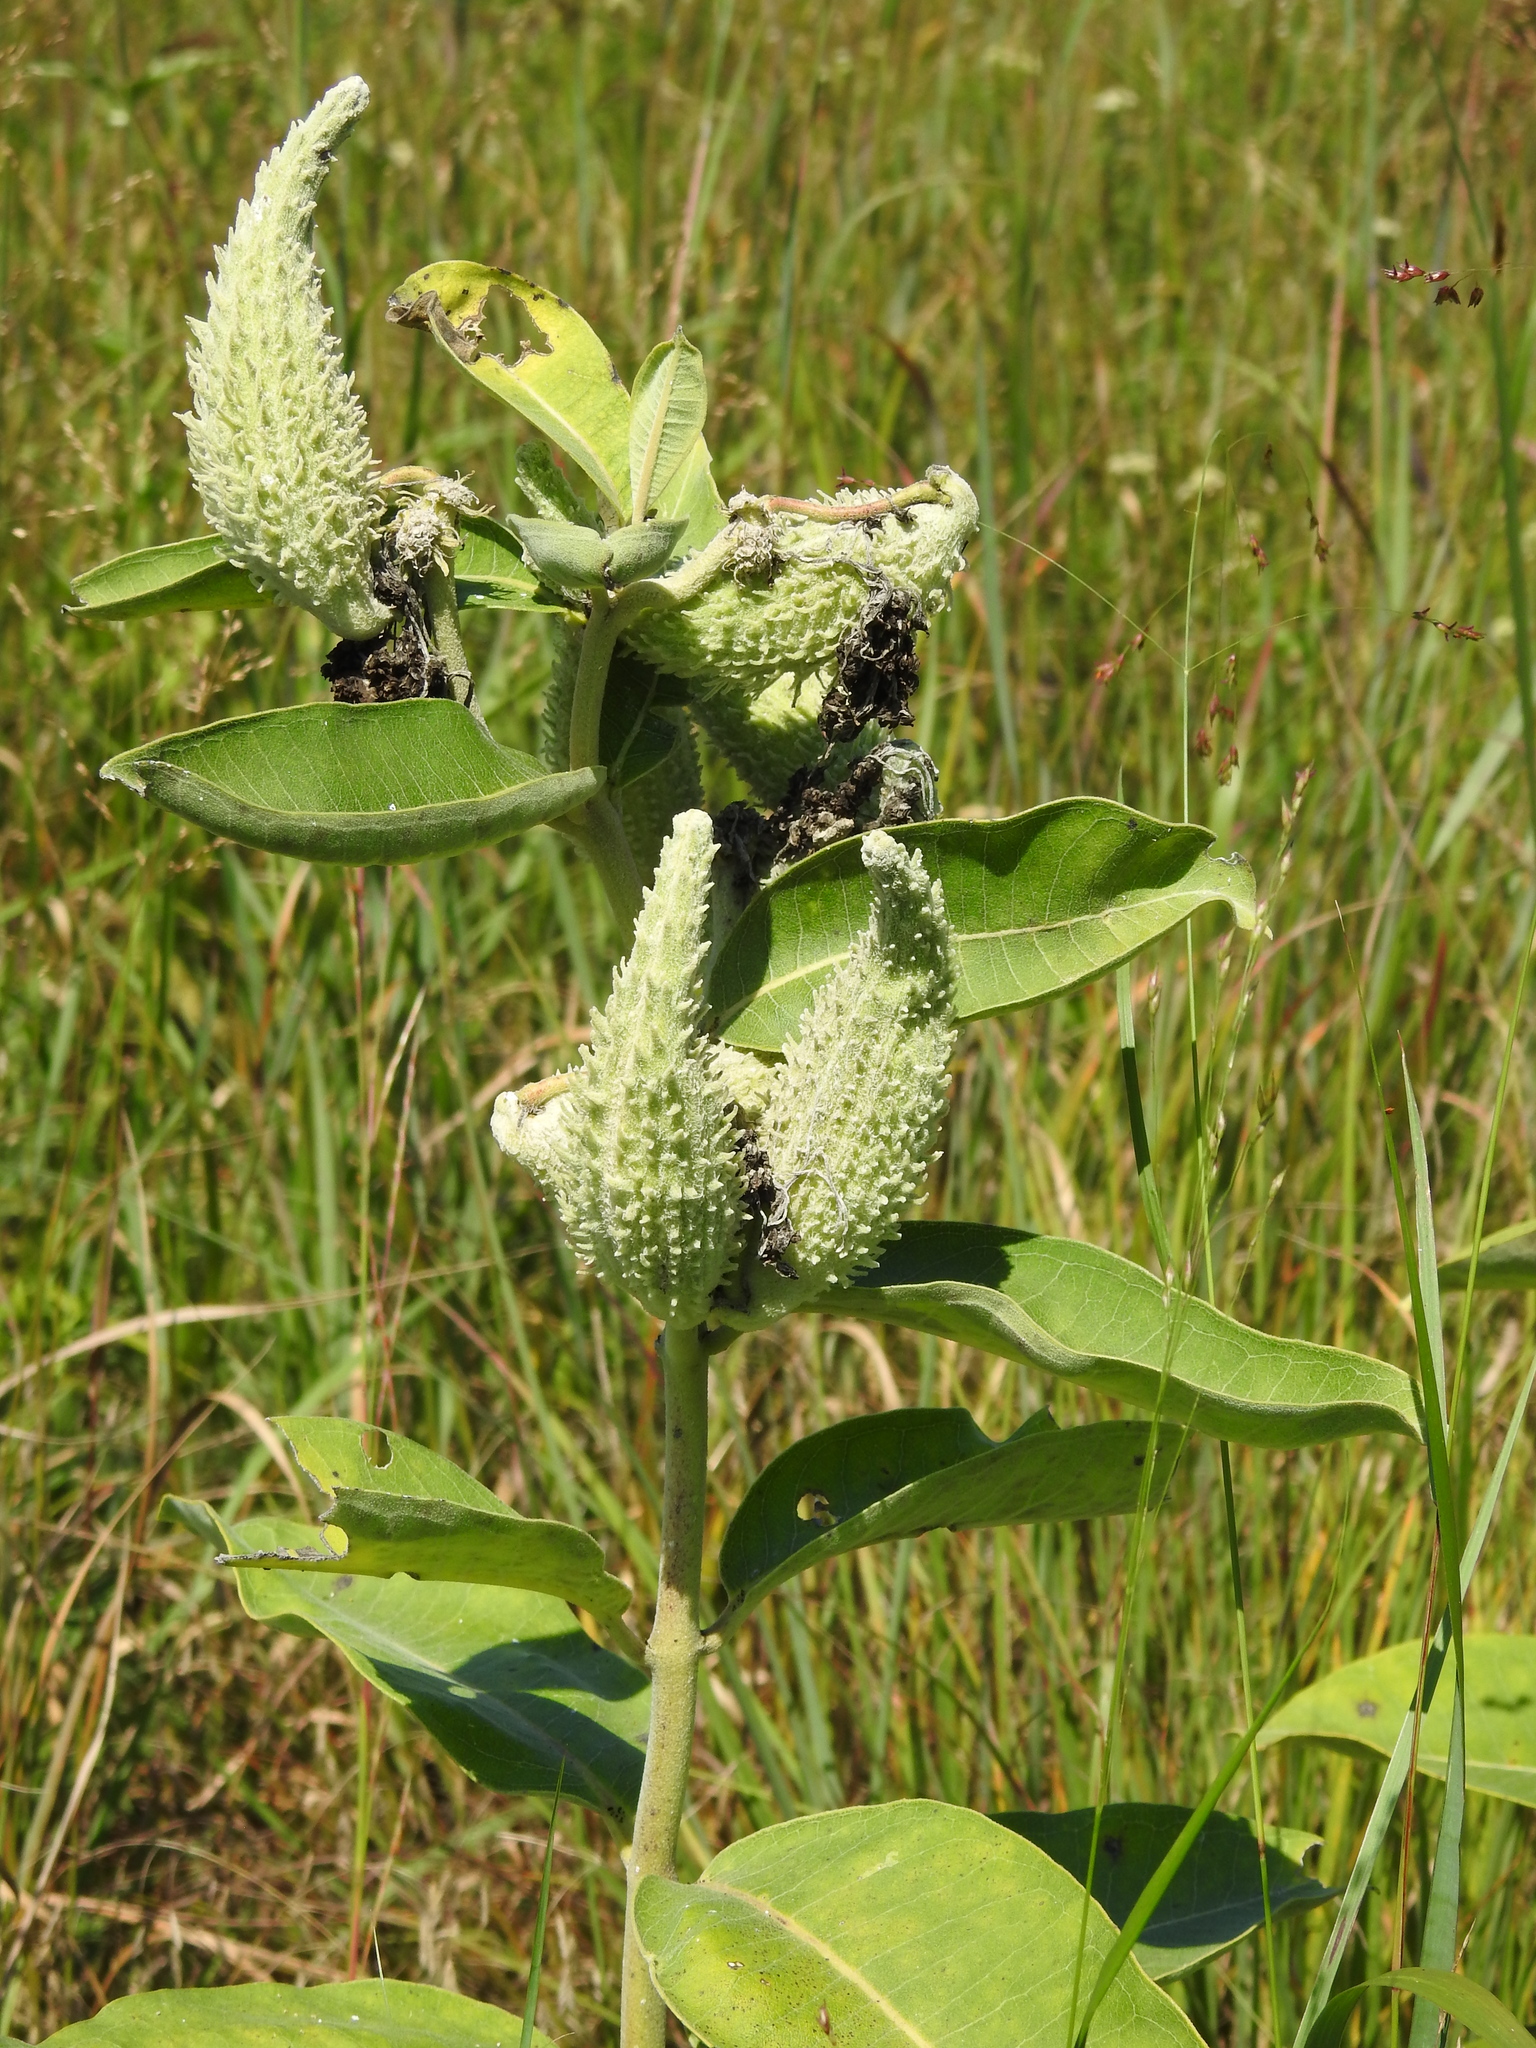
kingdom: Plantae
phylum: Tracheophyta
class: Magnoliopsida
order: Gentianales
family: Apocynaceae
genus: Asclepias
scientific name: Asclepias syriaca
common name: Common milkweed
